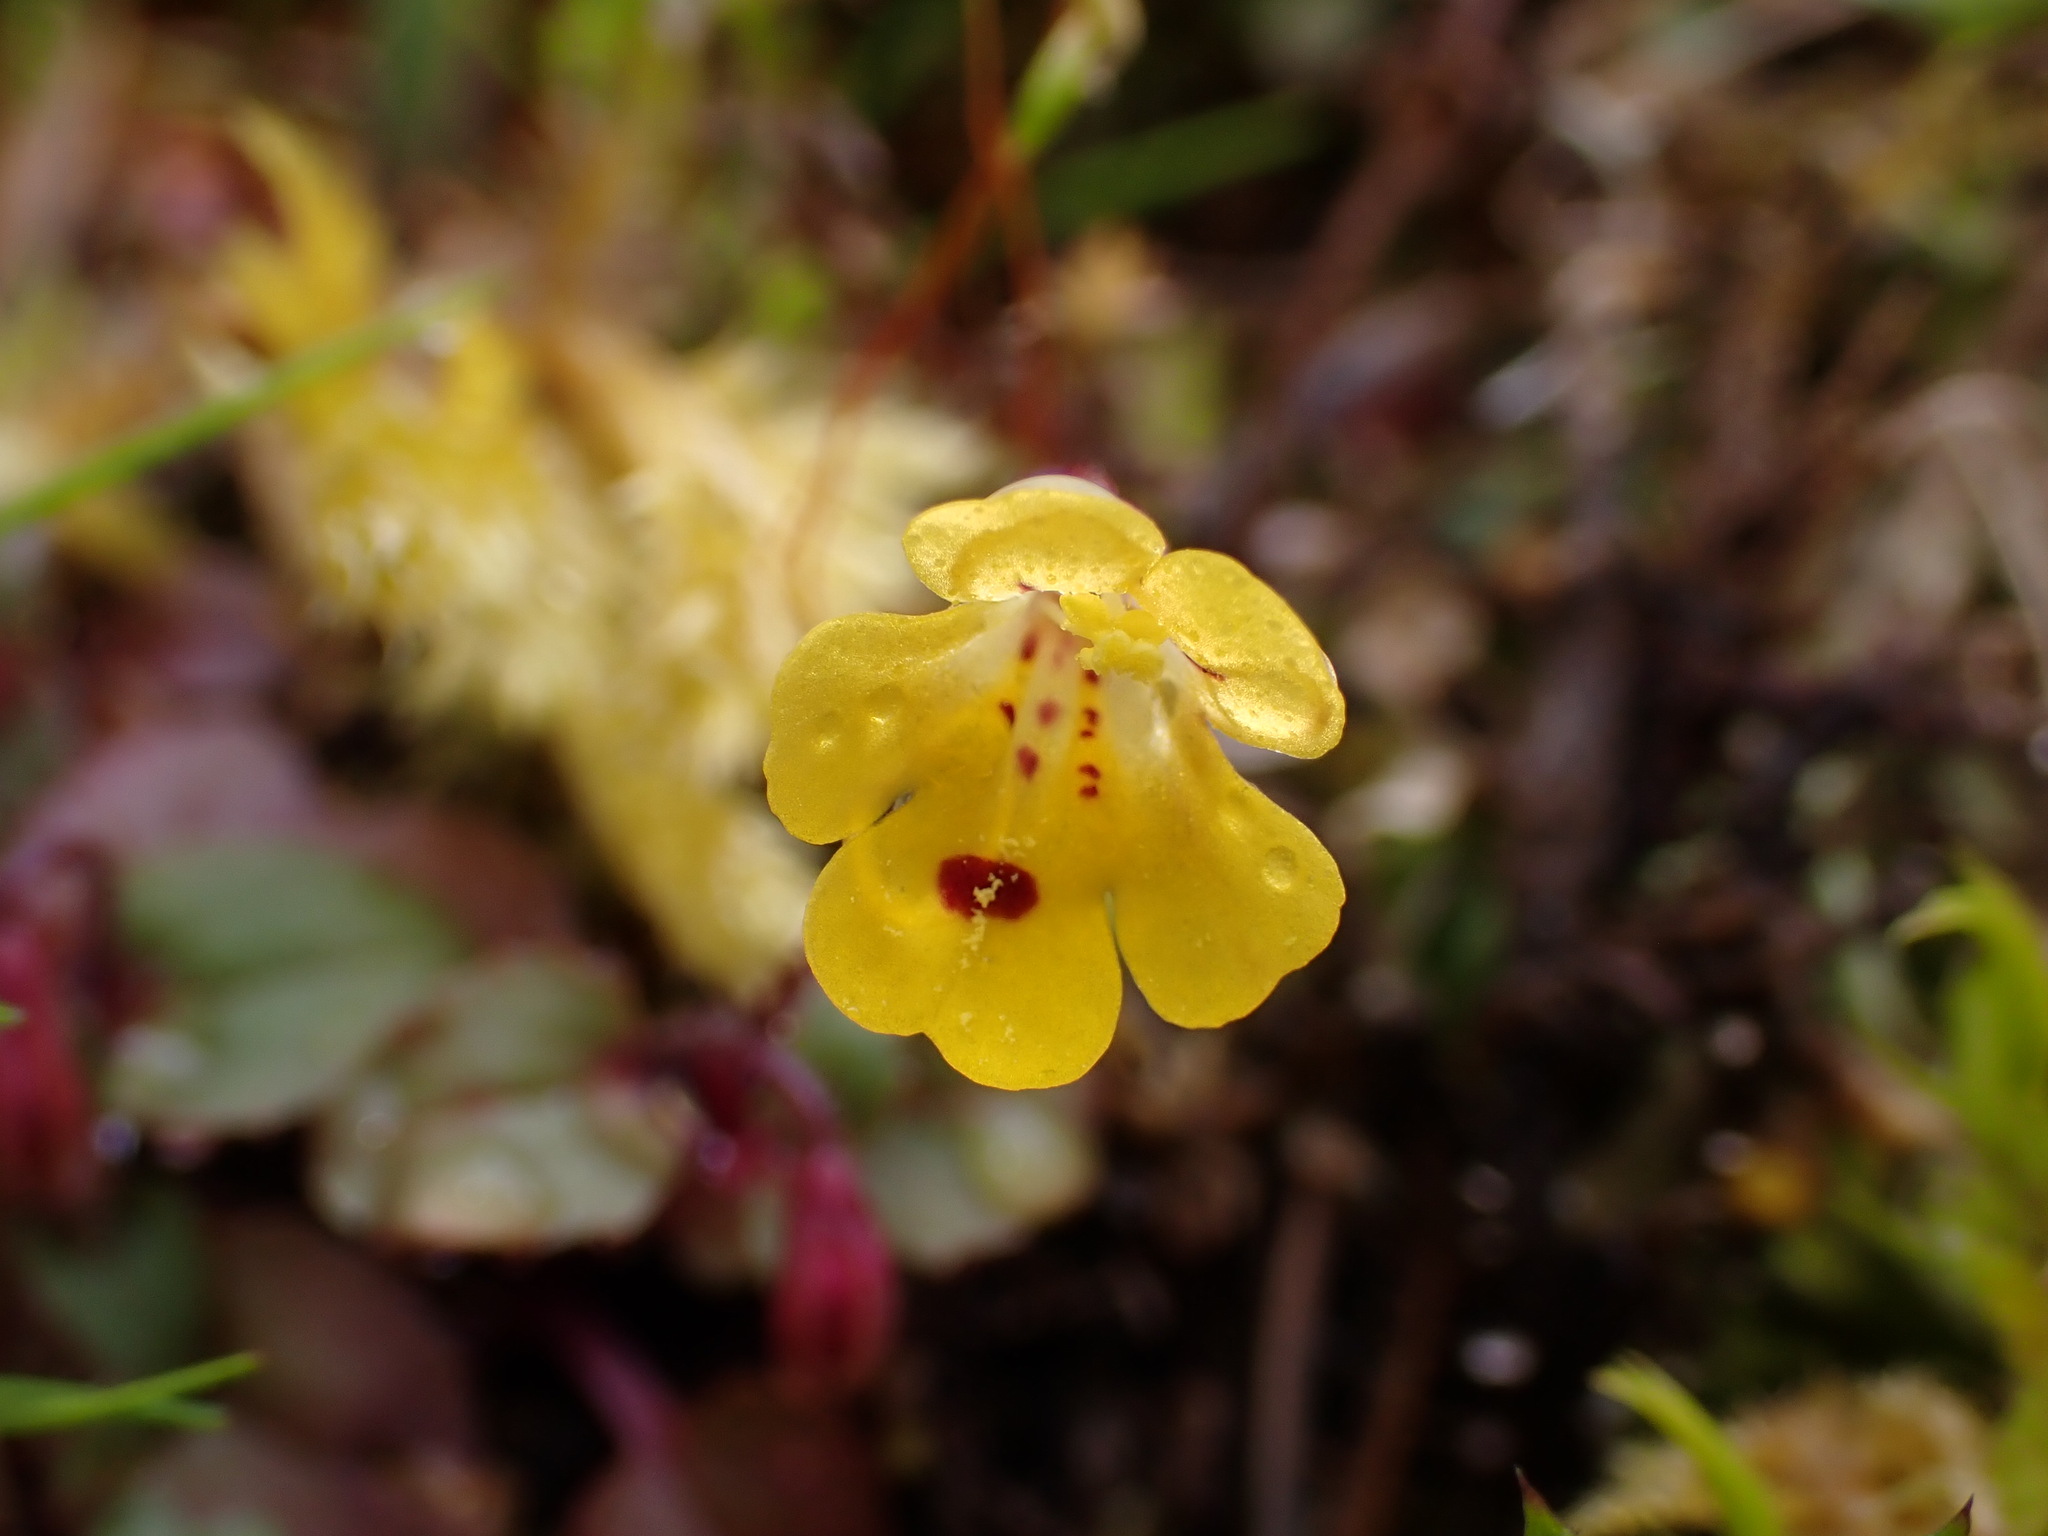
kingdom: Plantae
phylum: Tracheophyta
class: Magnoliopsida
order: Lamiales
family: Phrymaceae
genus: Erythranthe
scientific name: Erythranthe alsinoides
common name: Chickweed monkeyflower
